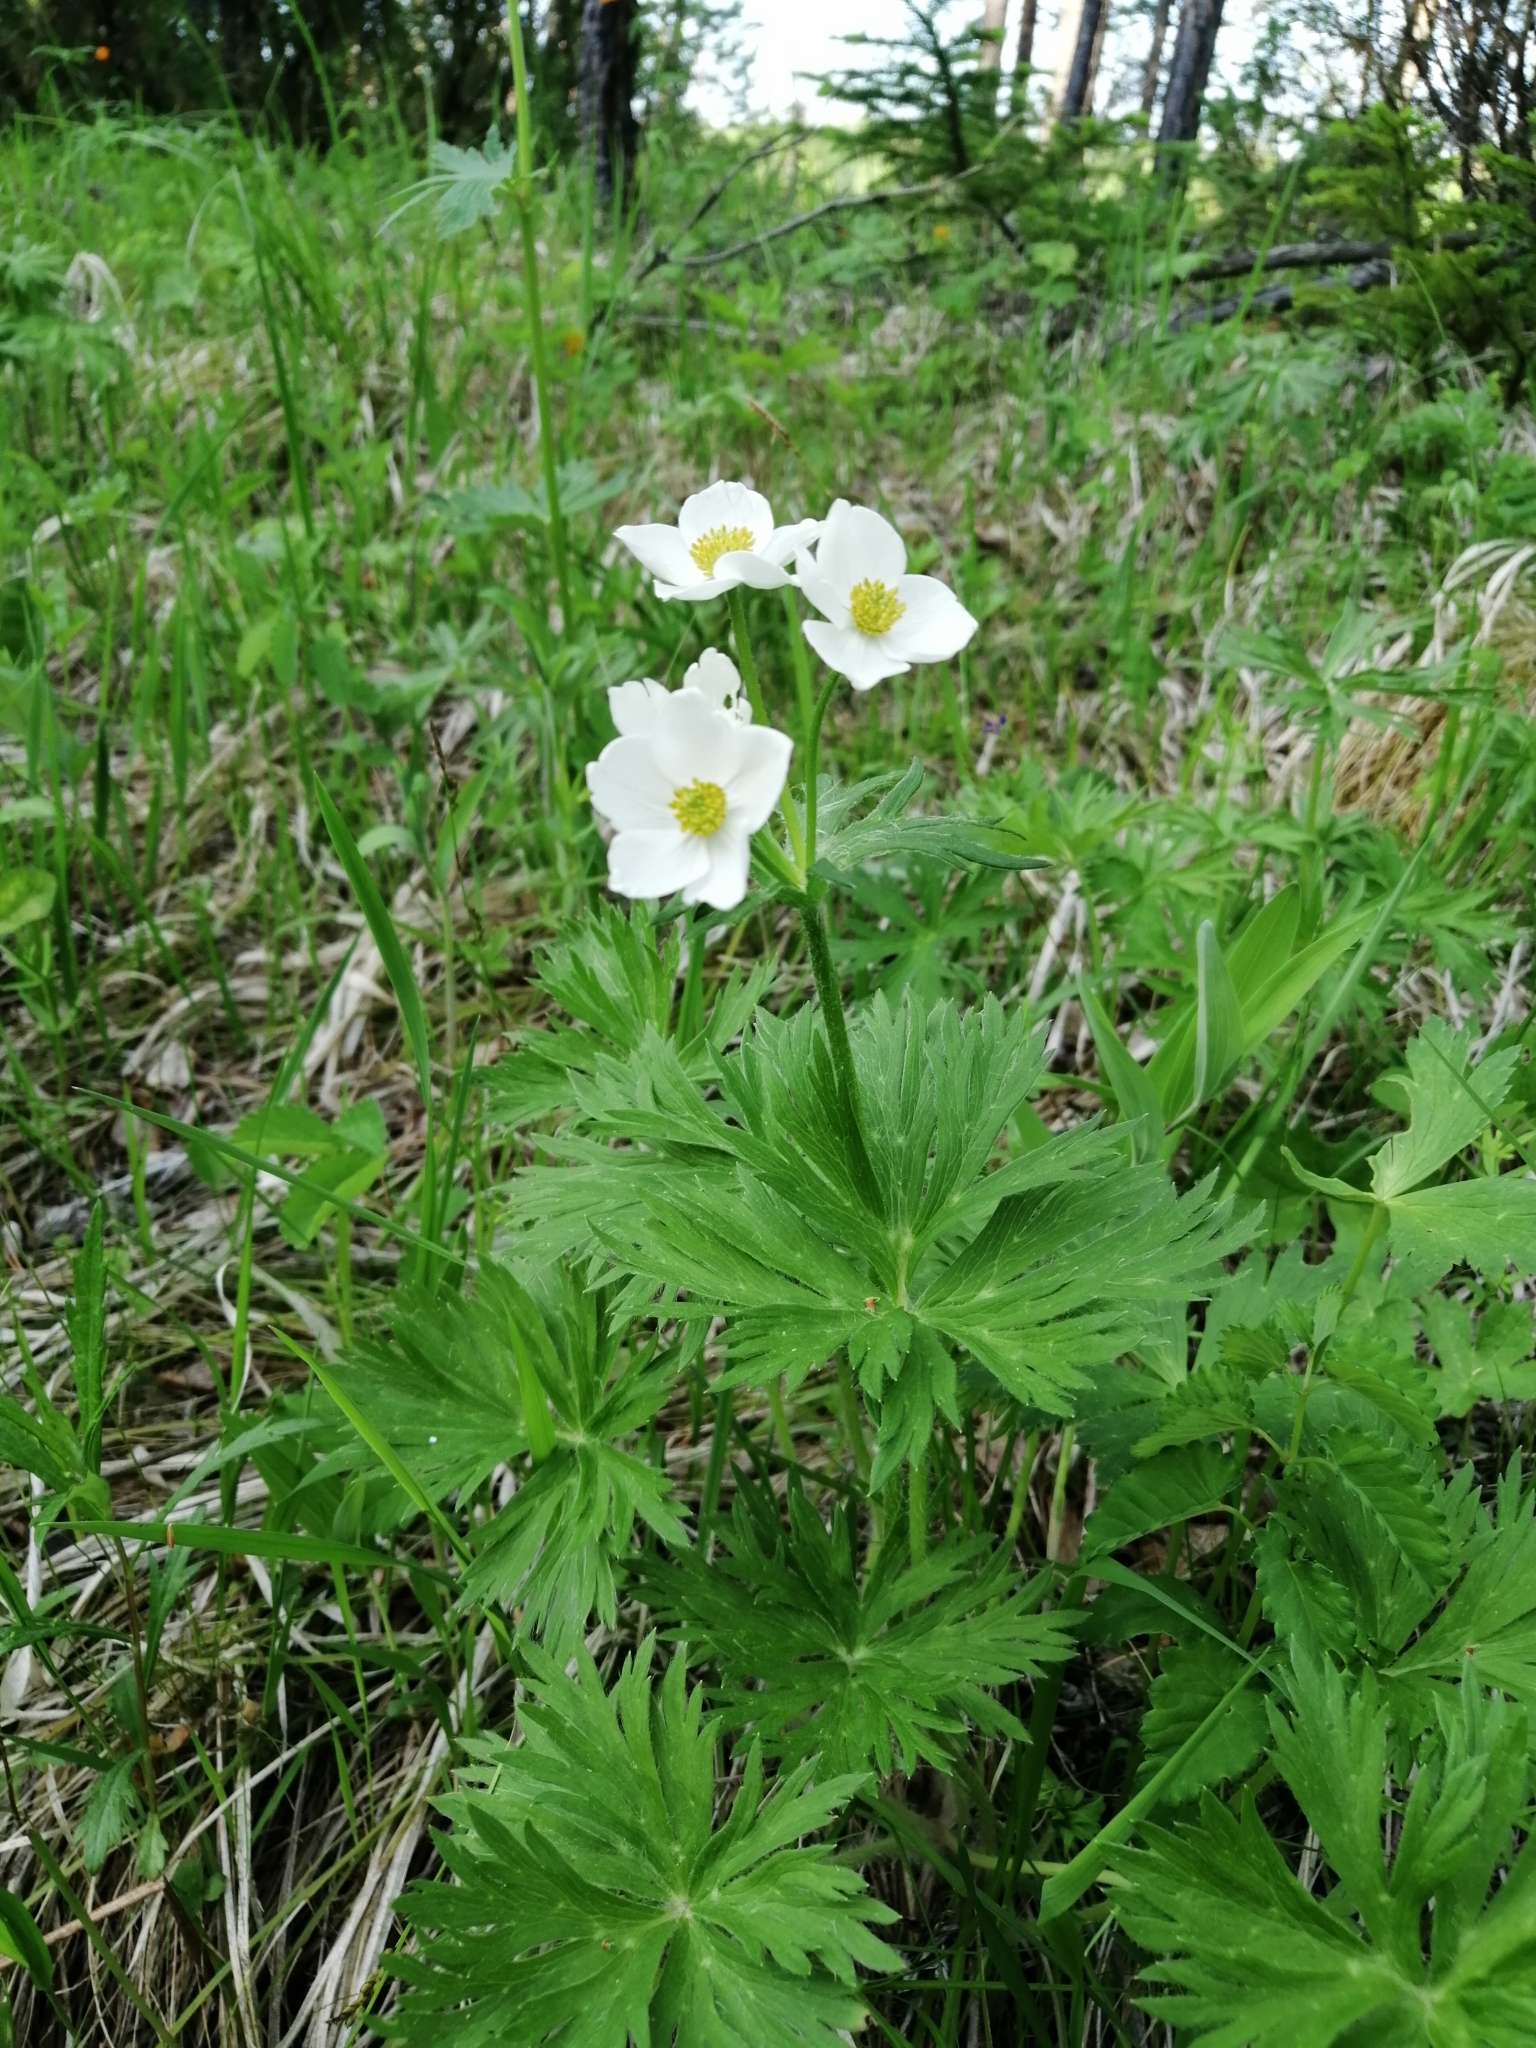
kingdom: Plantae
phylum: Tracheophyta
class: Magnoliopsida
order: Ranunculales
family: Ranunculaceae
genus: Anemonastrum
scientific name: Anemonastrum narcissiflorum
